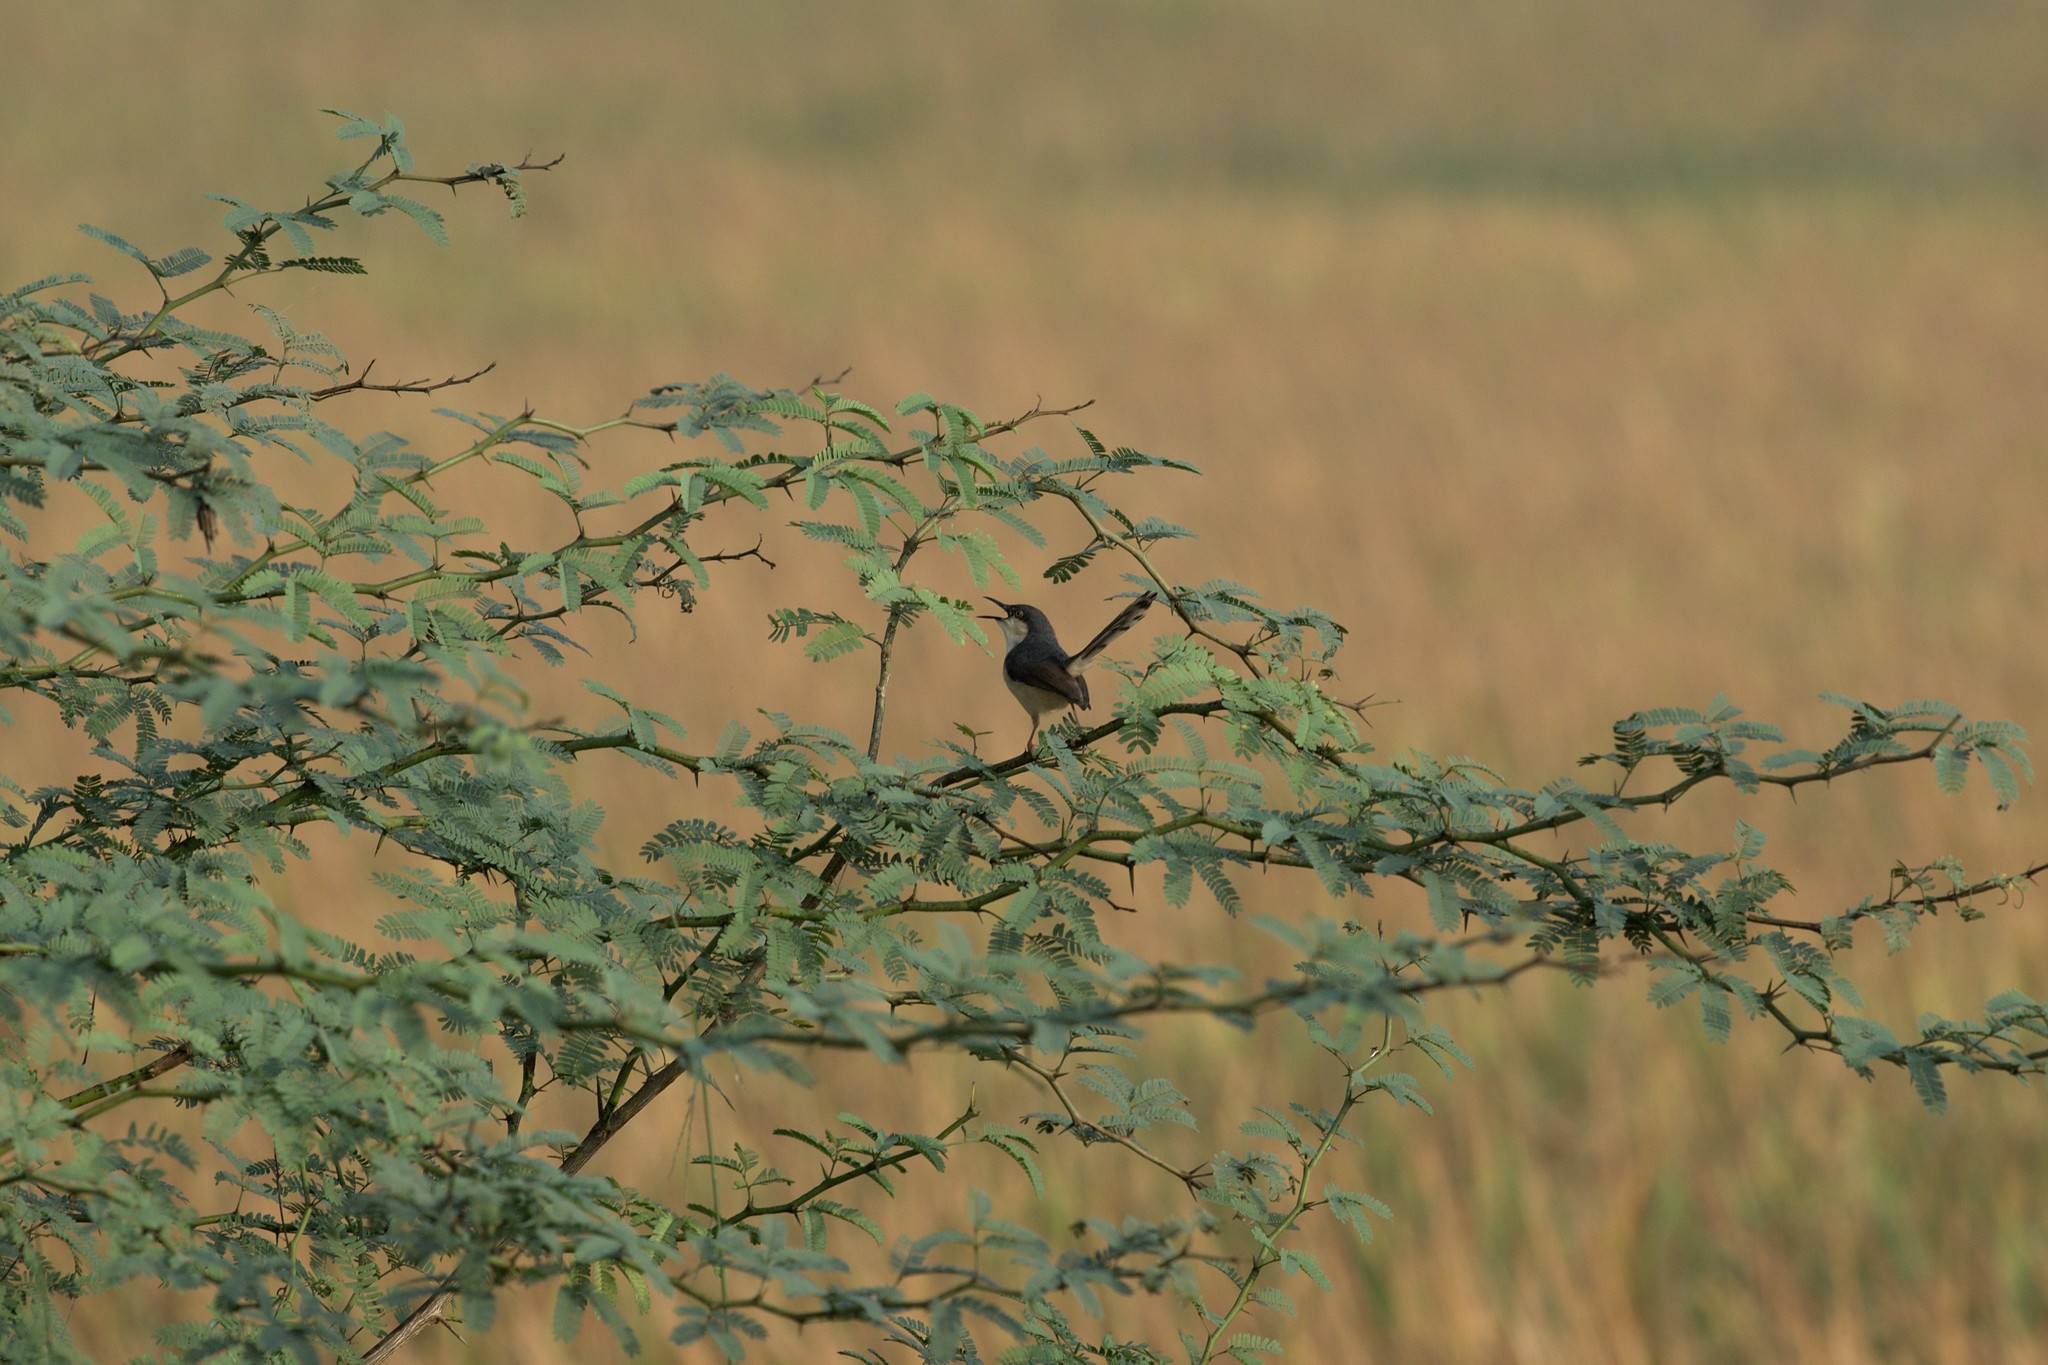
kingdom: Animalia
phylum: Chordata
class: Aves
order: Passeriformes
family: Cisticolidae
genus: Prinia
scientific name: Prinia socialis
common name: Ashy prinia
